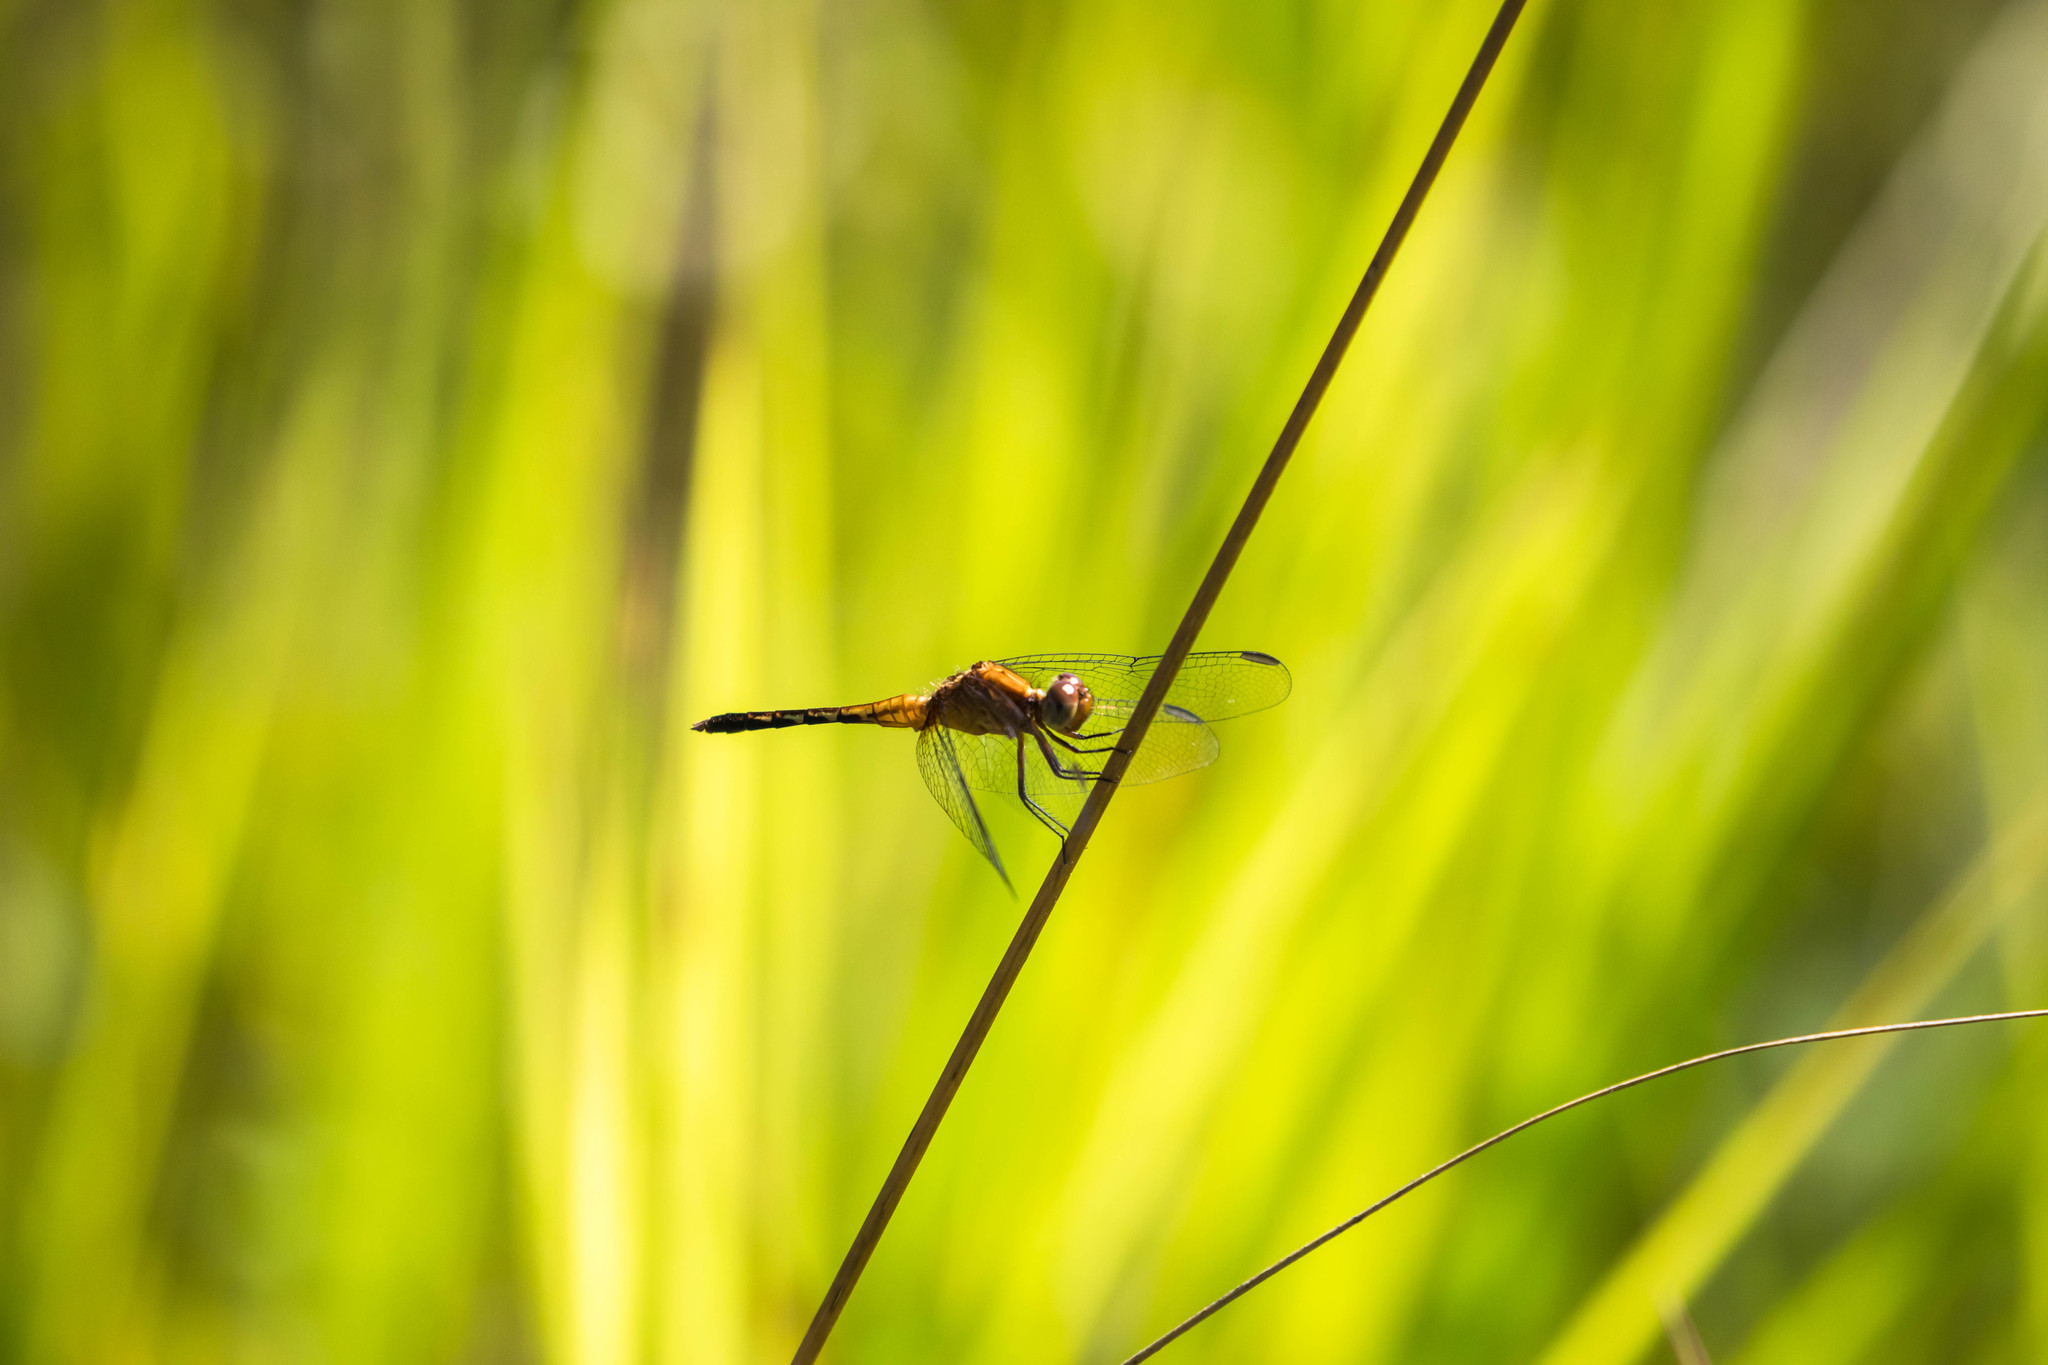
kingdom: Animalia
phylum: Arthropoda
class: Insecta
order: Odonata
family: Libellulidae
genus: Erythrodiplax
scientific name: Erythrodiplax fusca
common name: Red-faced dragonlet
